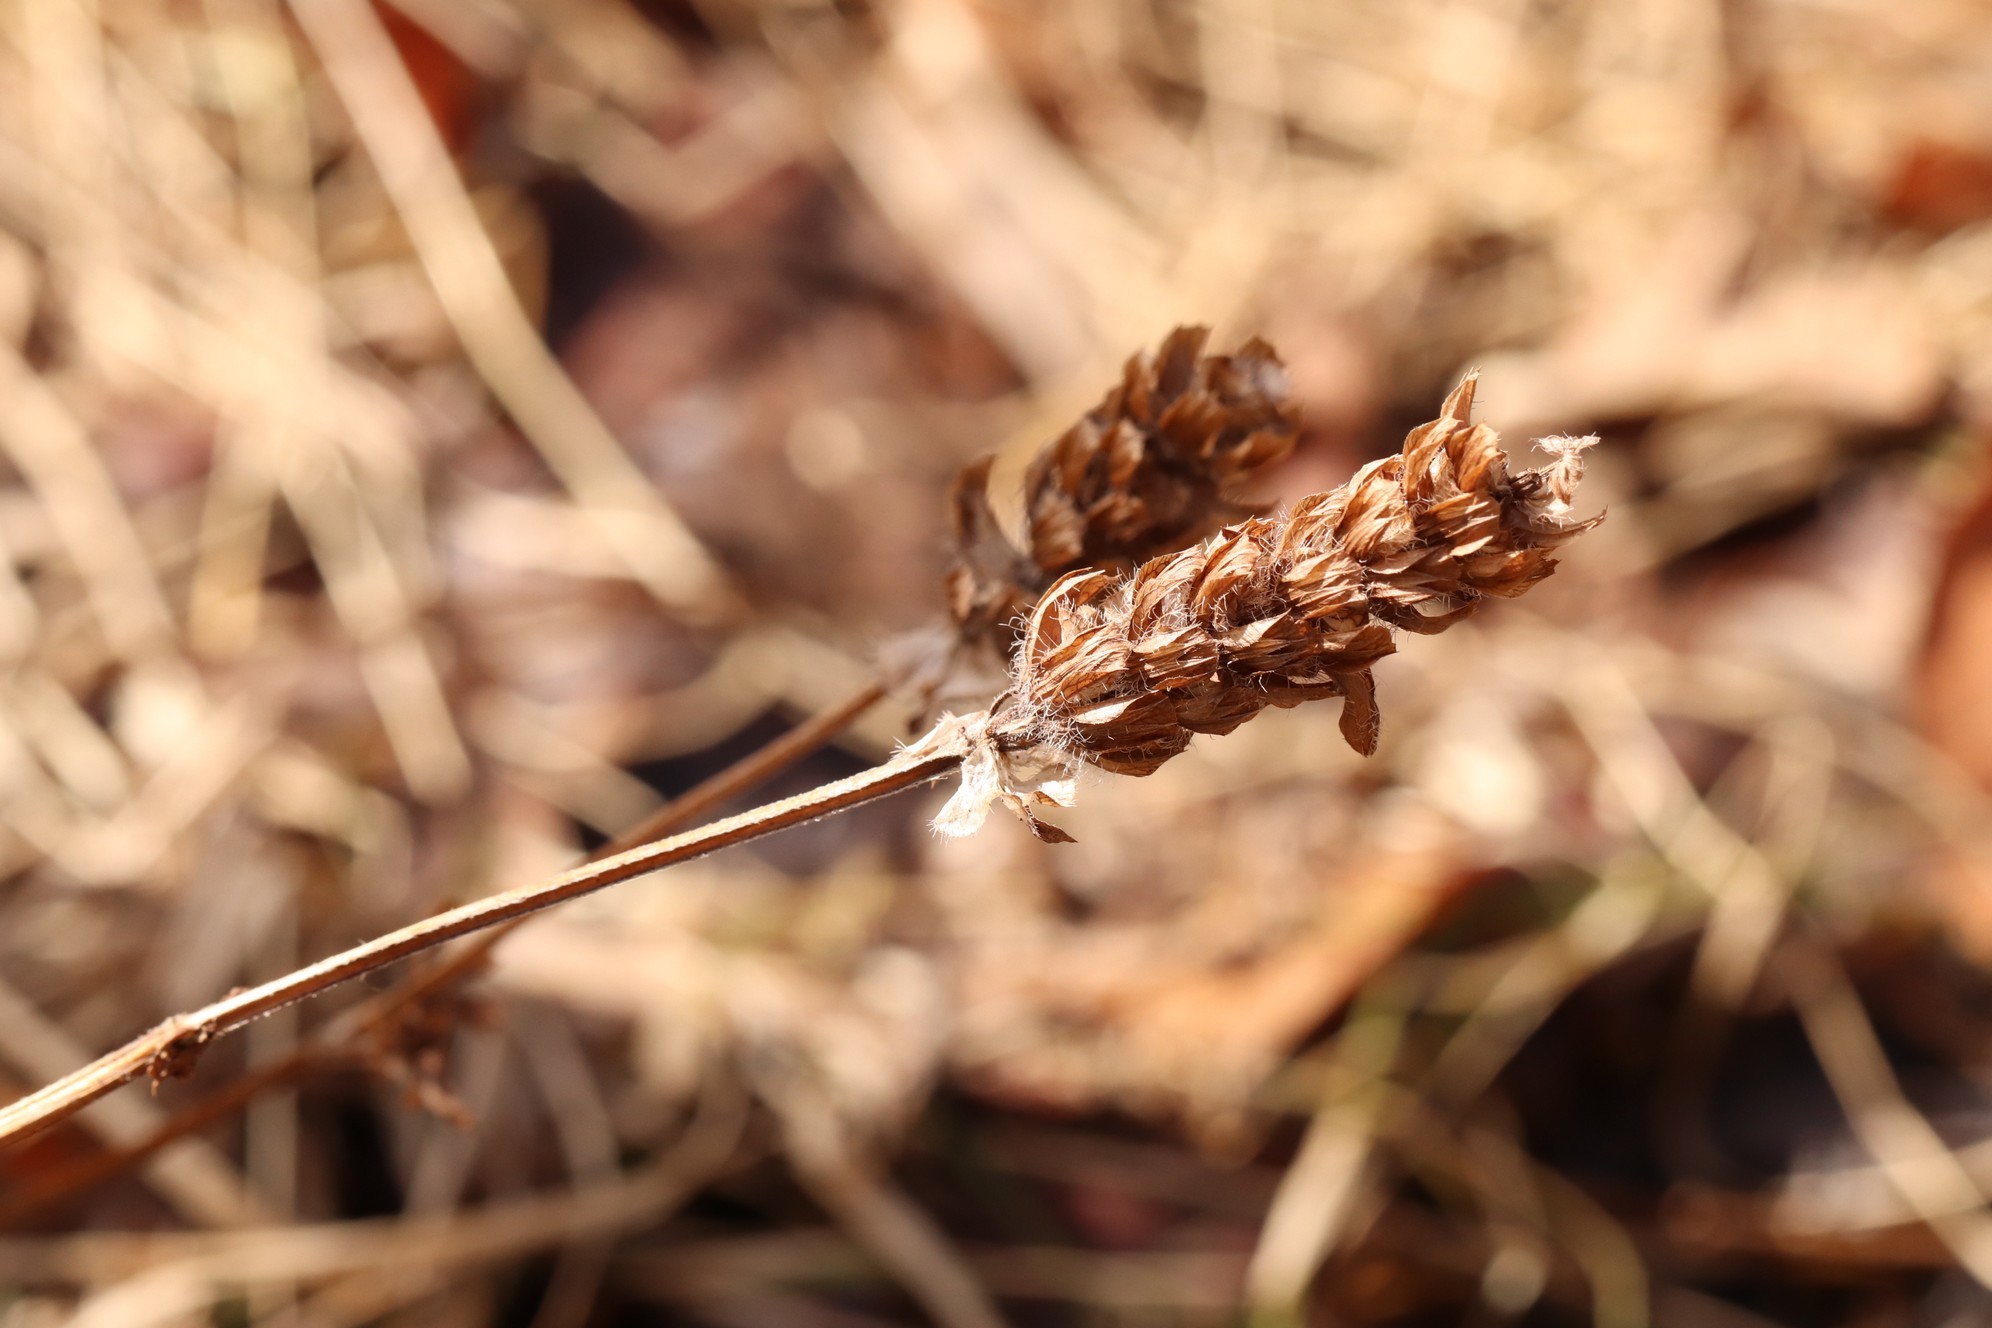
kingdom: Plantae
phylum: Tracheophyta
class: Magnoliopsida
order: Lamiales
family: Lamiaceae
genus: Prunella
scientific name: Prunella vulgaris
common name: Heal-all
